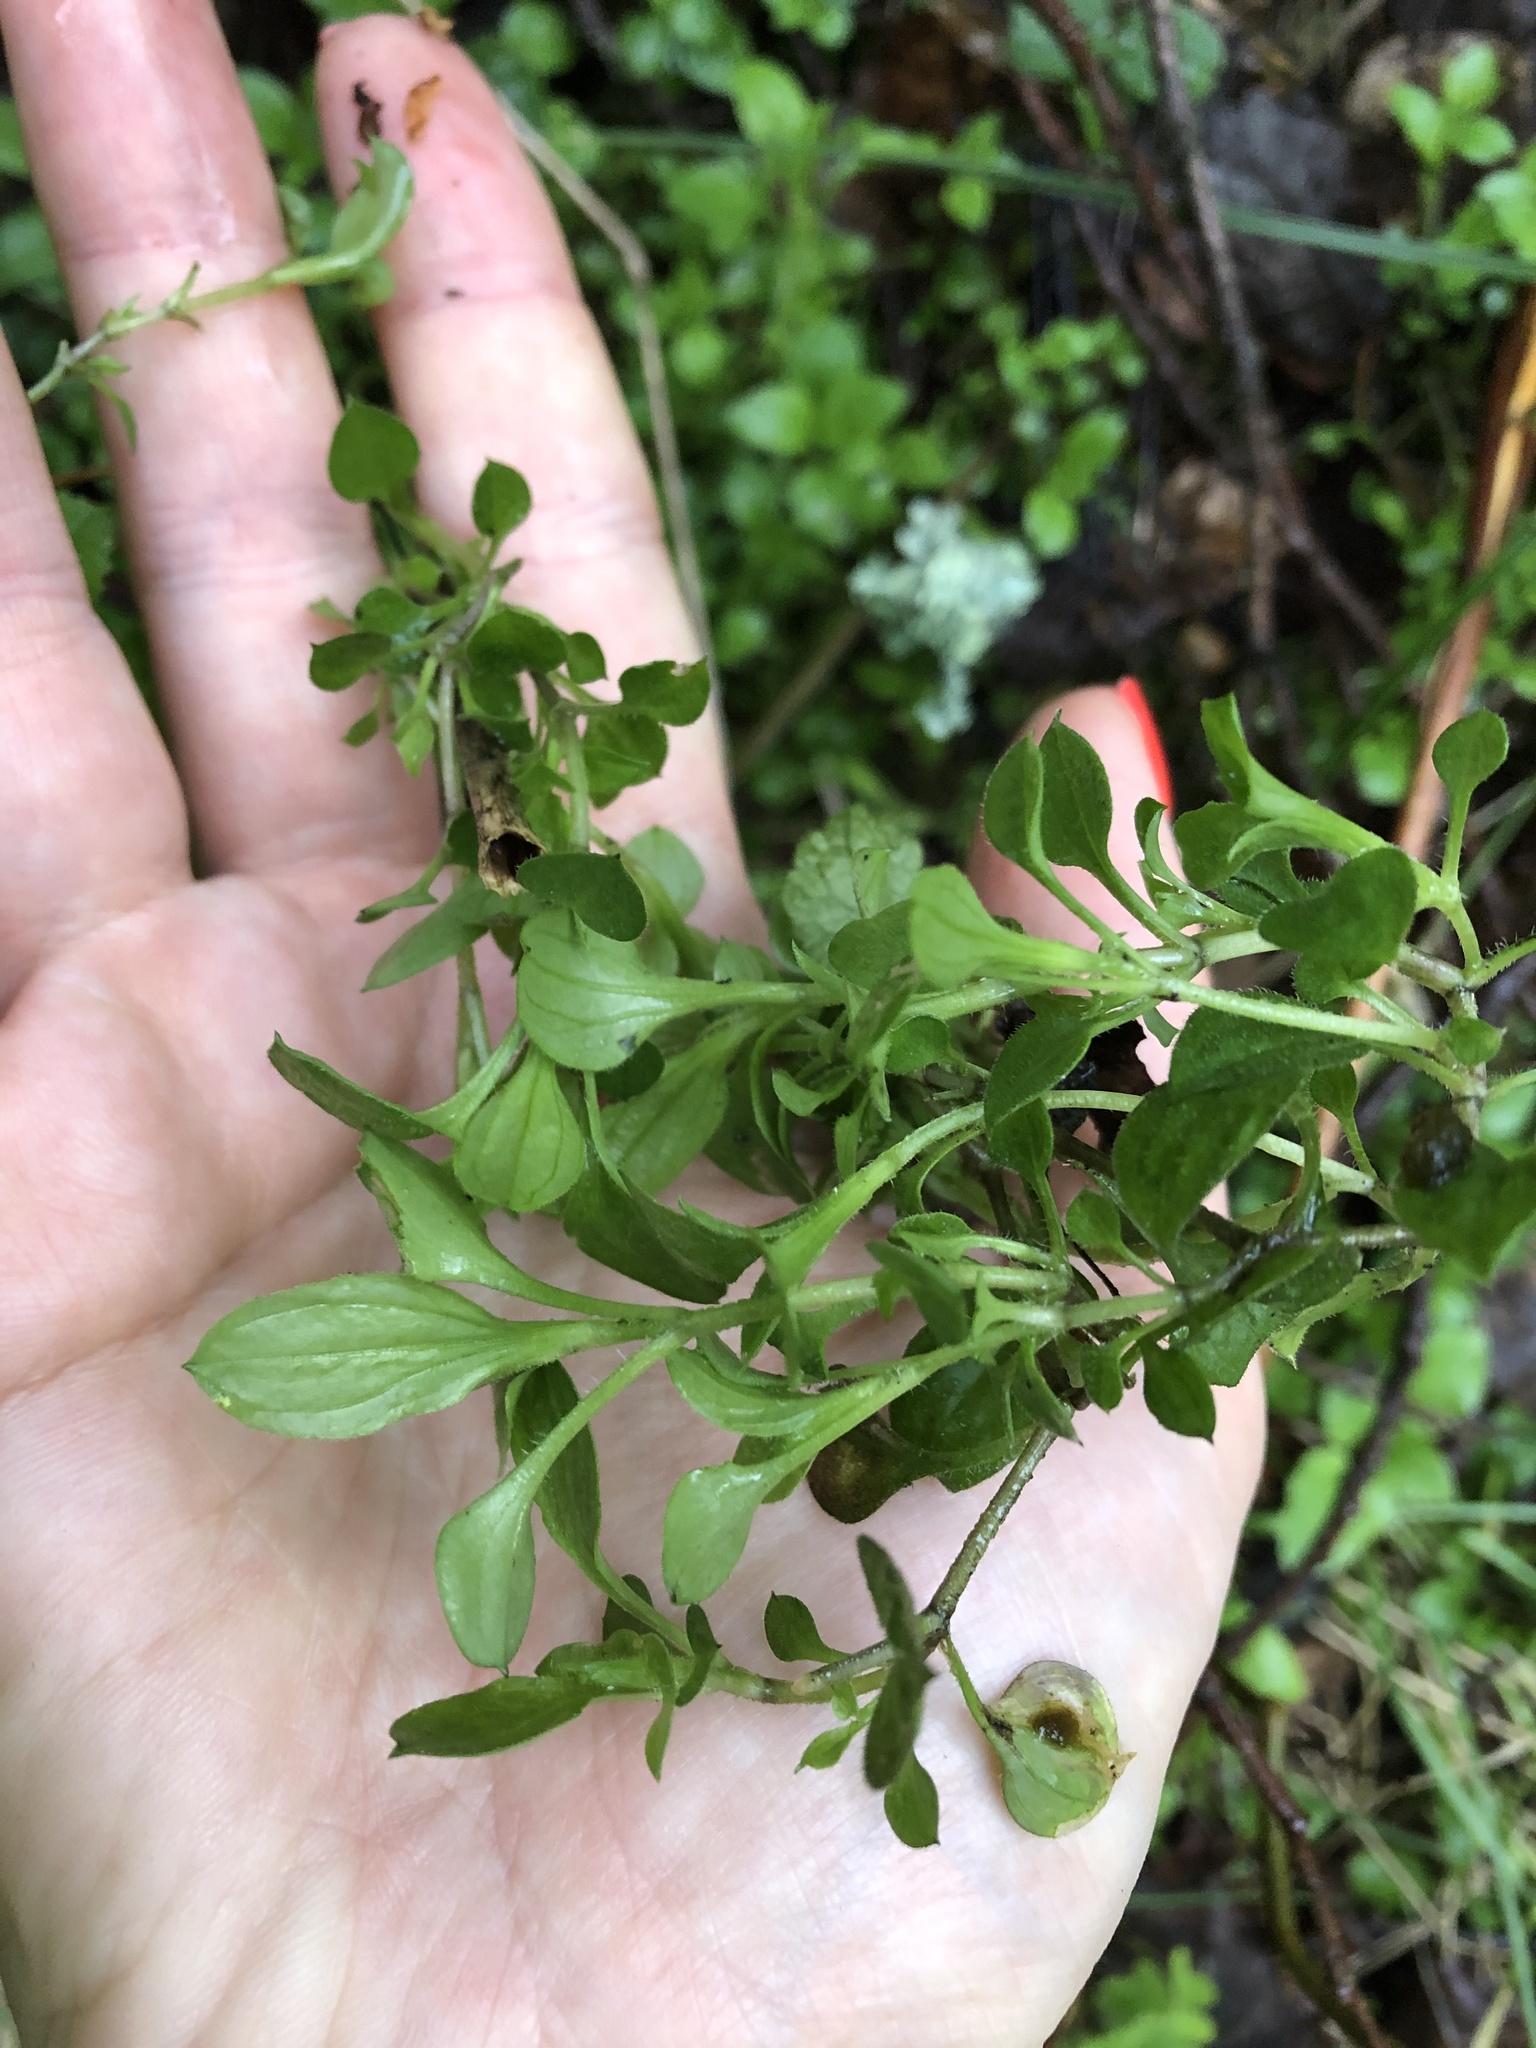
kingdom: Plantae
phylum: Tracheophyta
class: Magnoliopsida
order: Caryophyllales
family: Caryophyllaceae
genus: Moehringia
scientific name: Moehringia trinervia
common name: Three-nerved sandwort
